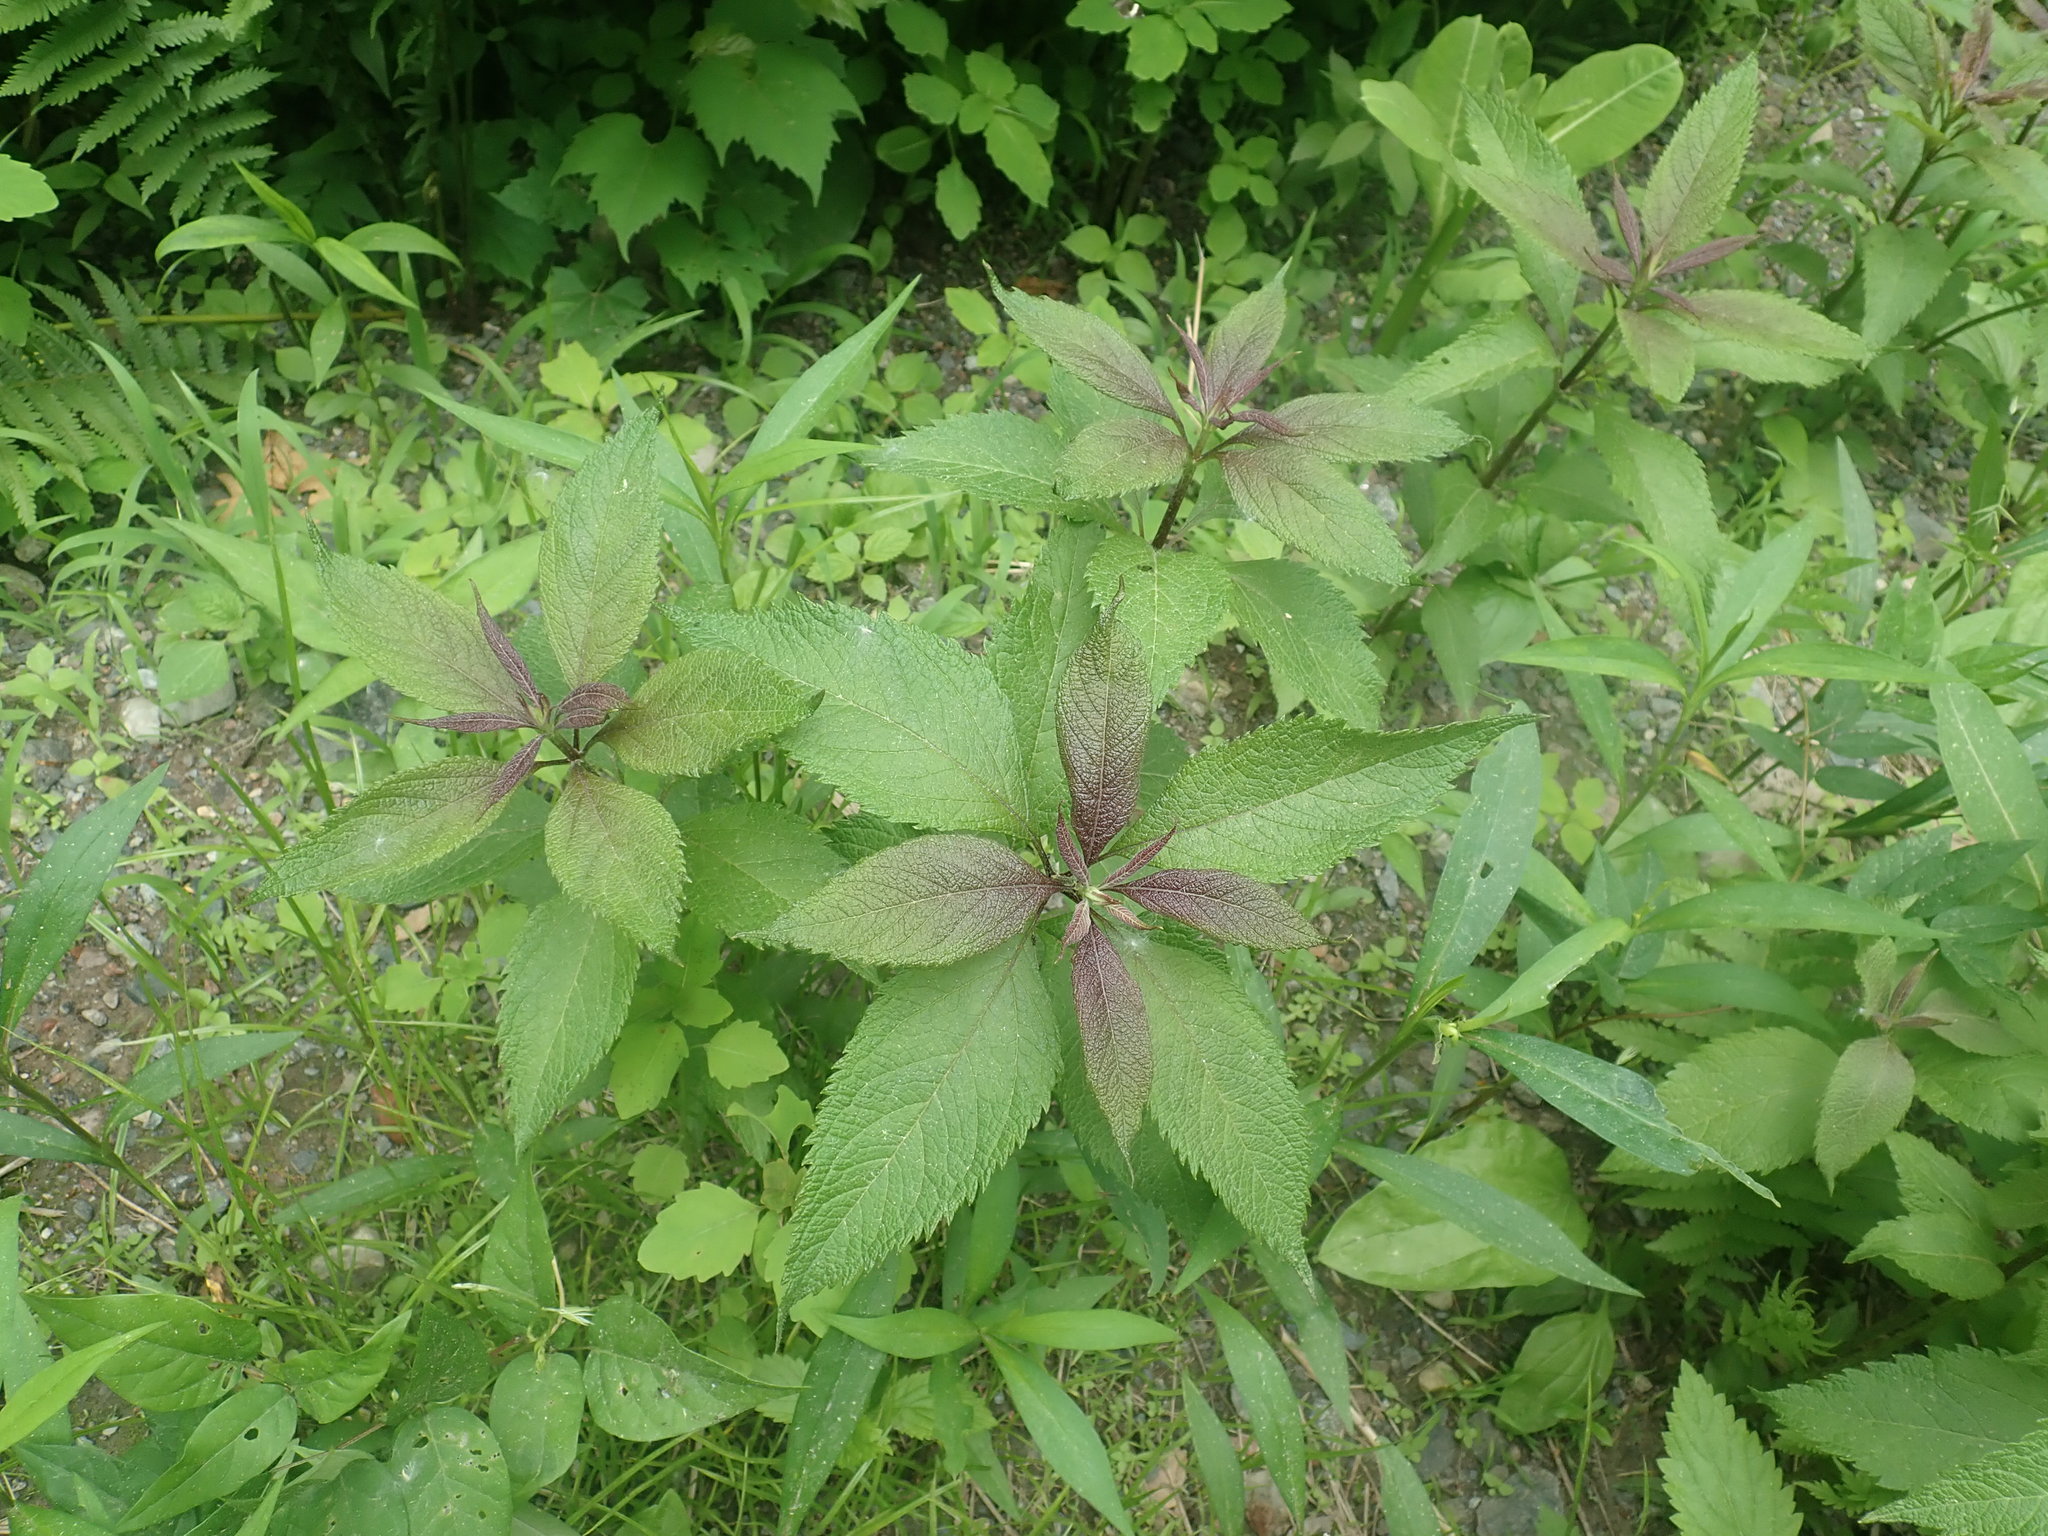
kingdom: Plantae
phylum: Tracheophyta
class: Magnoliopsida
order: Asterales
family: Asteraceae
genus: Eutrochium
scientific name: Eutrochium
